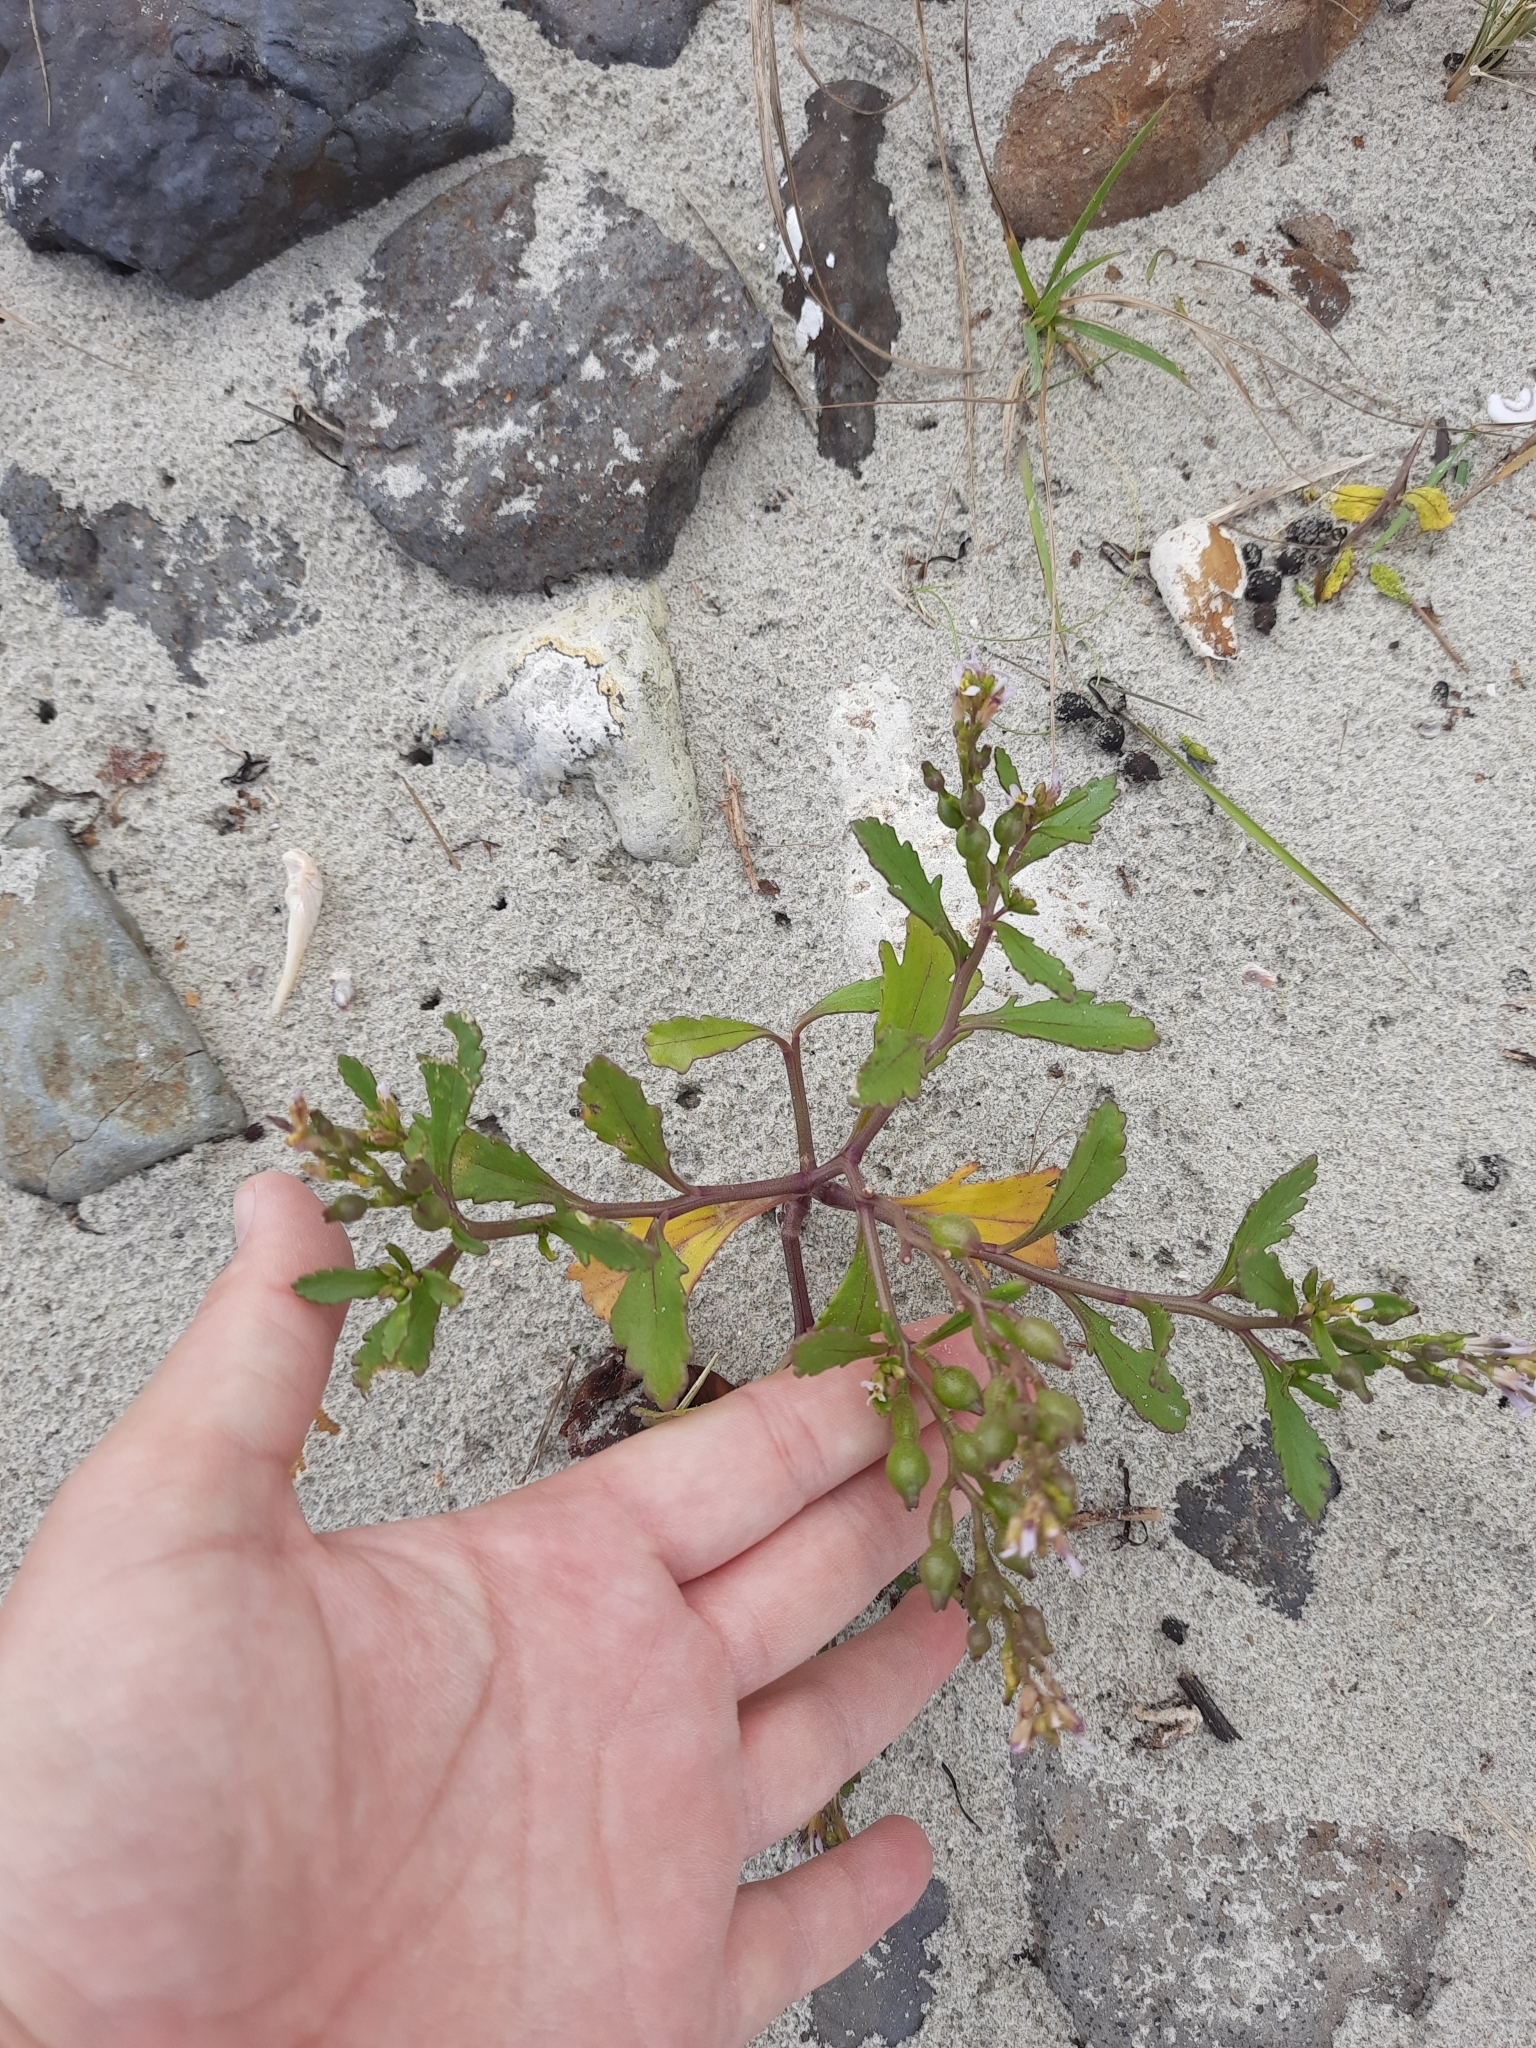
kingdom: Plantae
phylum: Tracheophyta
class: Magnoliopsida
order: Brassicales
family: Brassicaceae
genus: Cakile
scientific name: Cakile edentula
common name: American sea rocket
